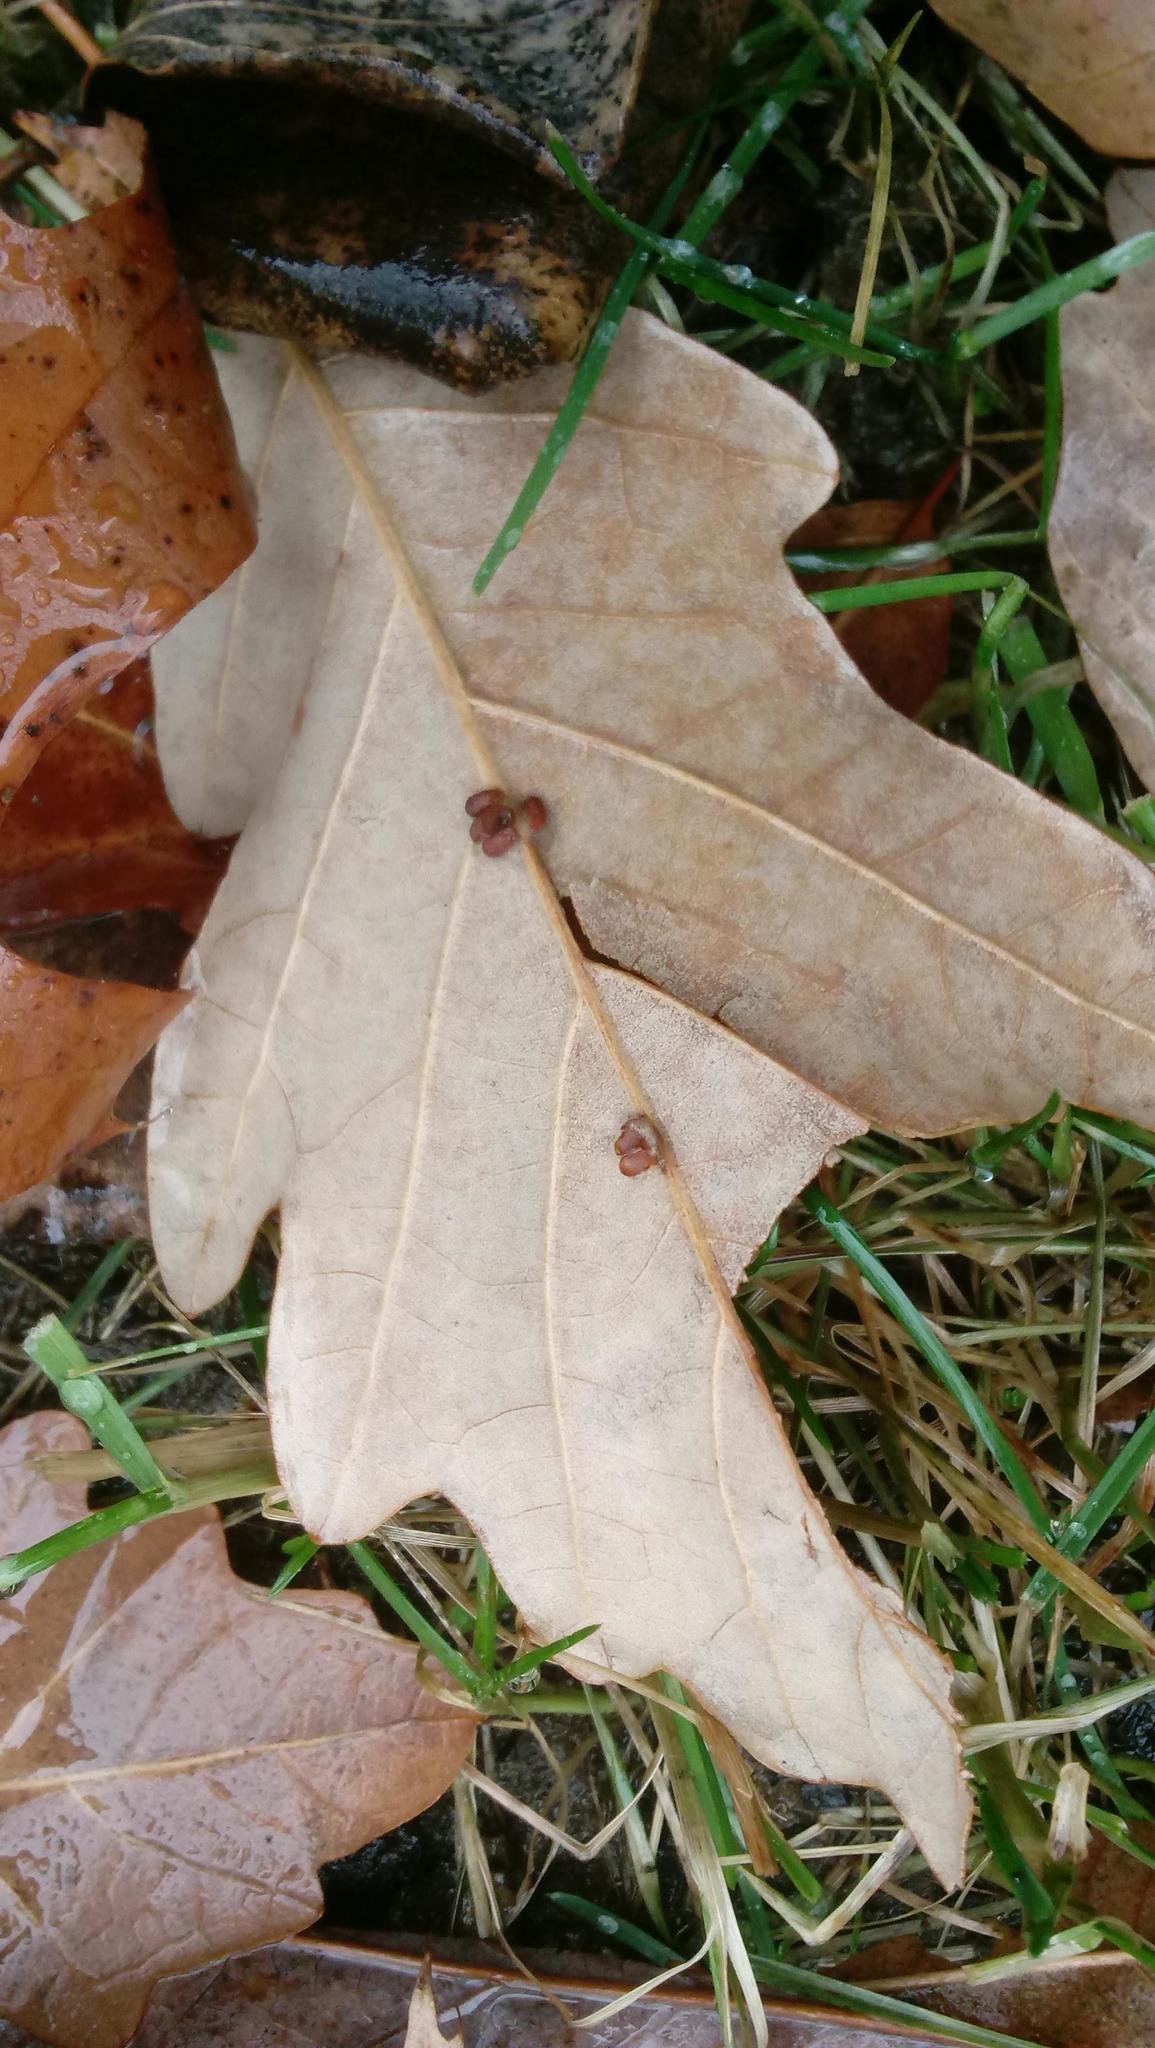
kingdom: Animalia
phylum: Arthropoda
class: Insecta
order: Hymenoptera
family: Cynipidae
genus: Andricus
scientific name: Andricus Druon ignotum
